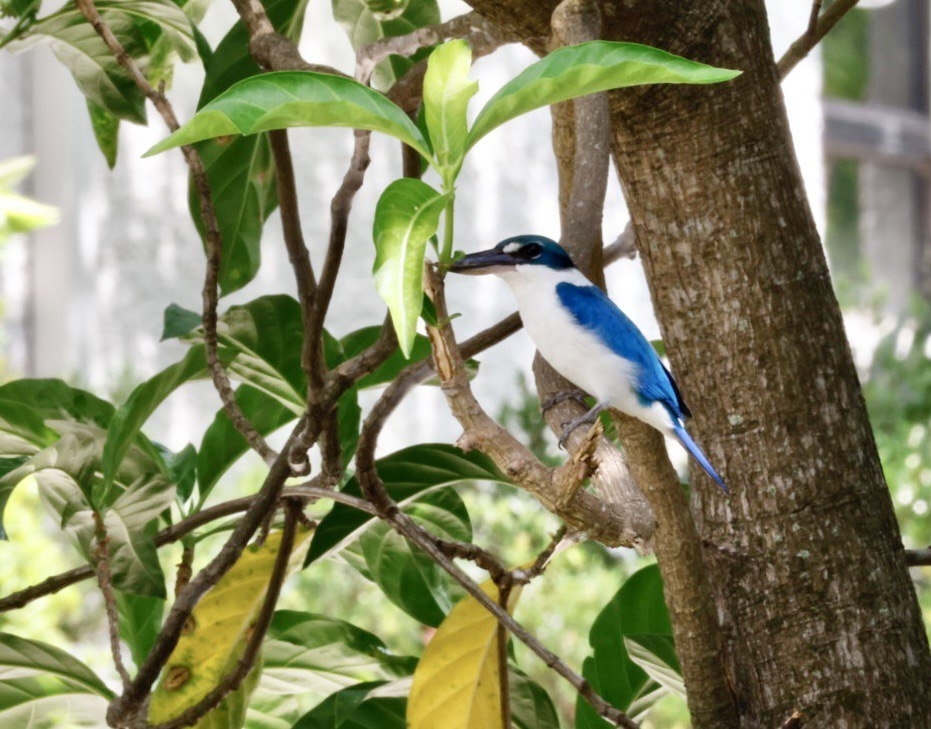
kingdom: Animalia
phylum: Chordata
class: Aves
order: Coraciiformes
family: Alcedinidae
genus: Todiramphus
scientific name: Todiramphus chloris
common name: Collared kingfisher
